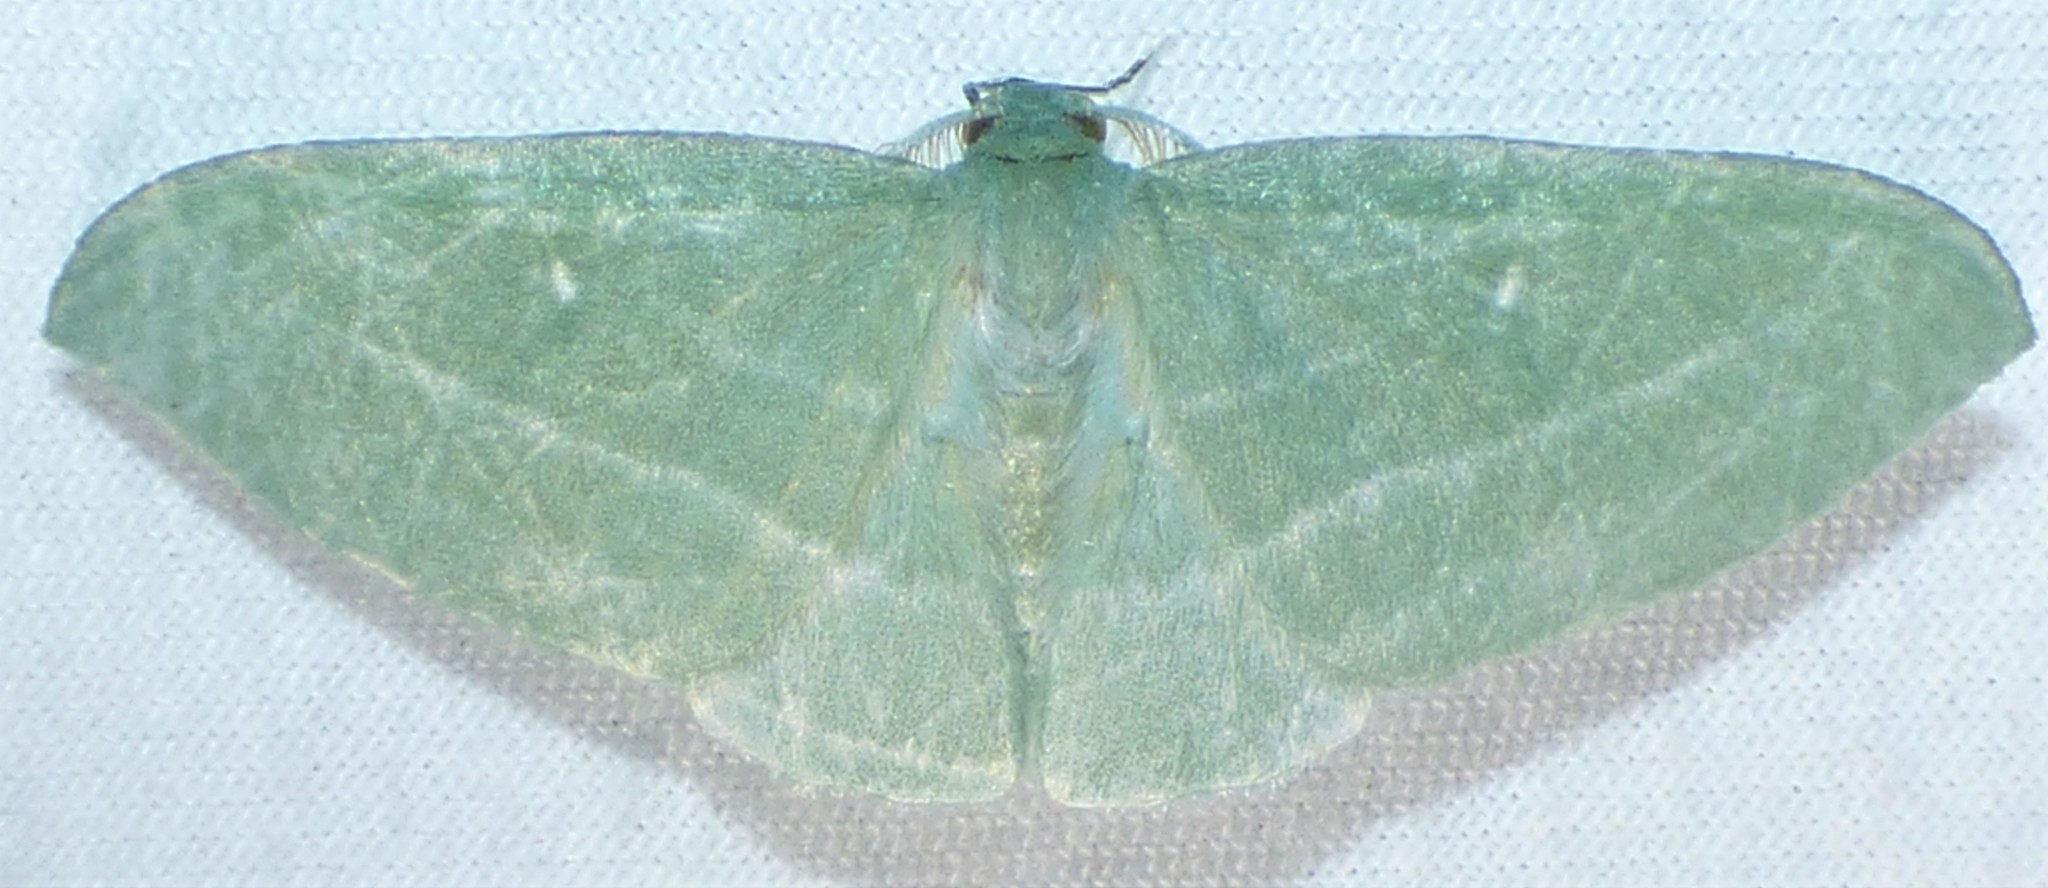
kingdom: Animalia
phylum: Arthropoda
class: Insecta
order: Lepidoptera
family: Geometridae
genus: Dyspteris
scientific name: Dyspteris abortivaria
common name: Bad-wing
